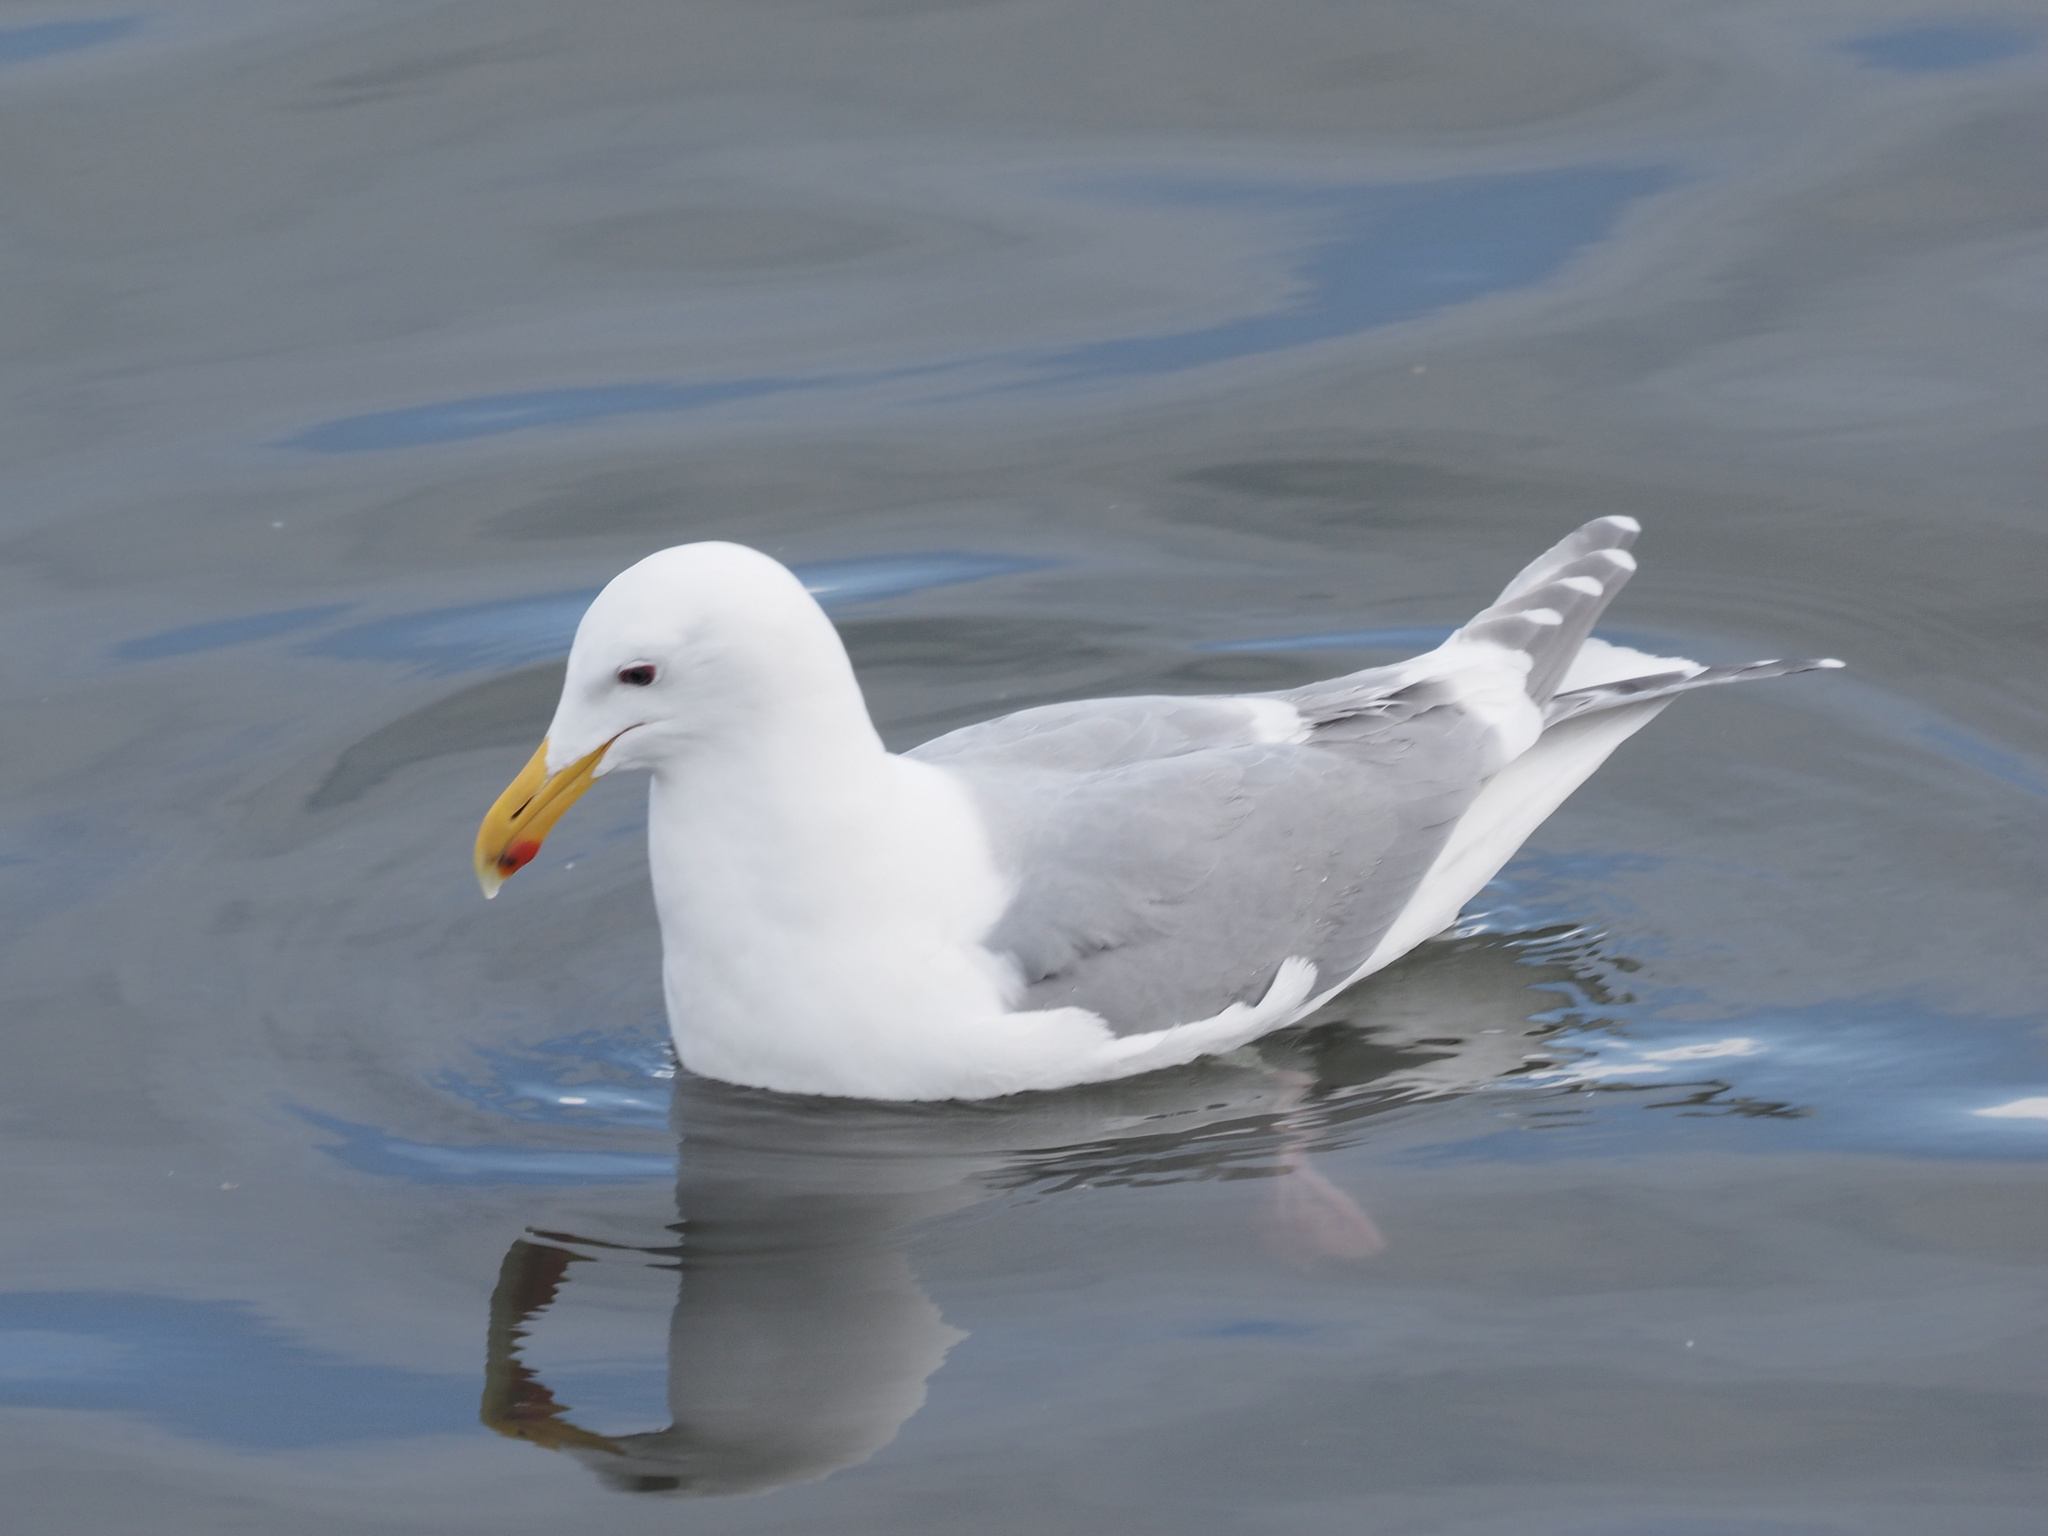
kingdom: Animalia
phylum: Chordata
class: Aves
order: Charadriiformes
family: Laridae
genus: Larus
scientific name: Larus glaucescens
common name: Glaucous-winged gull
